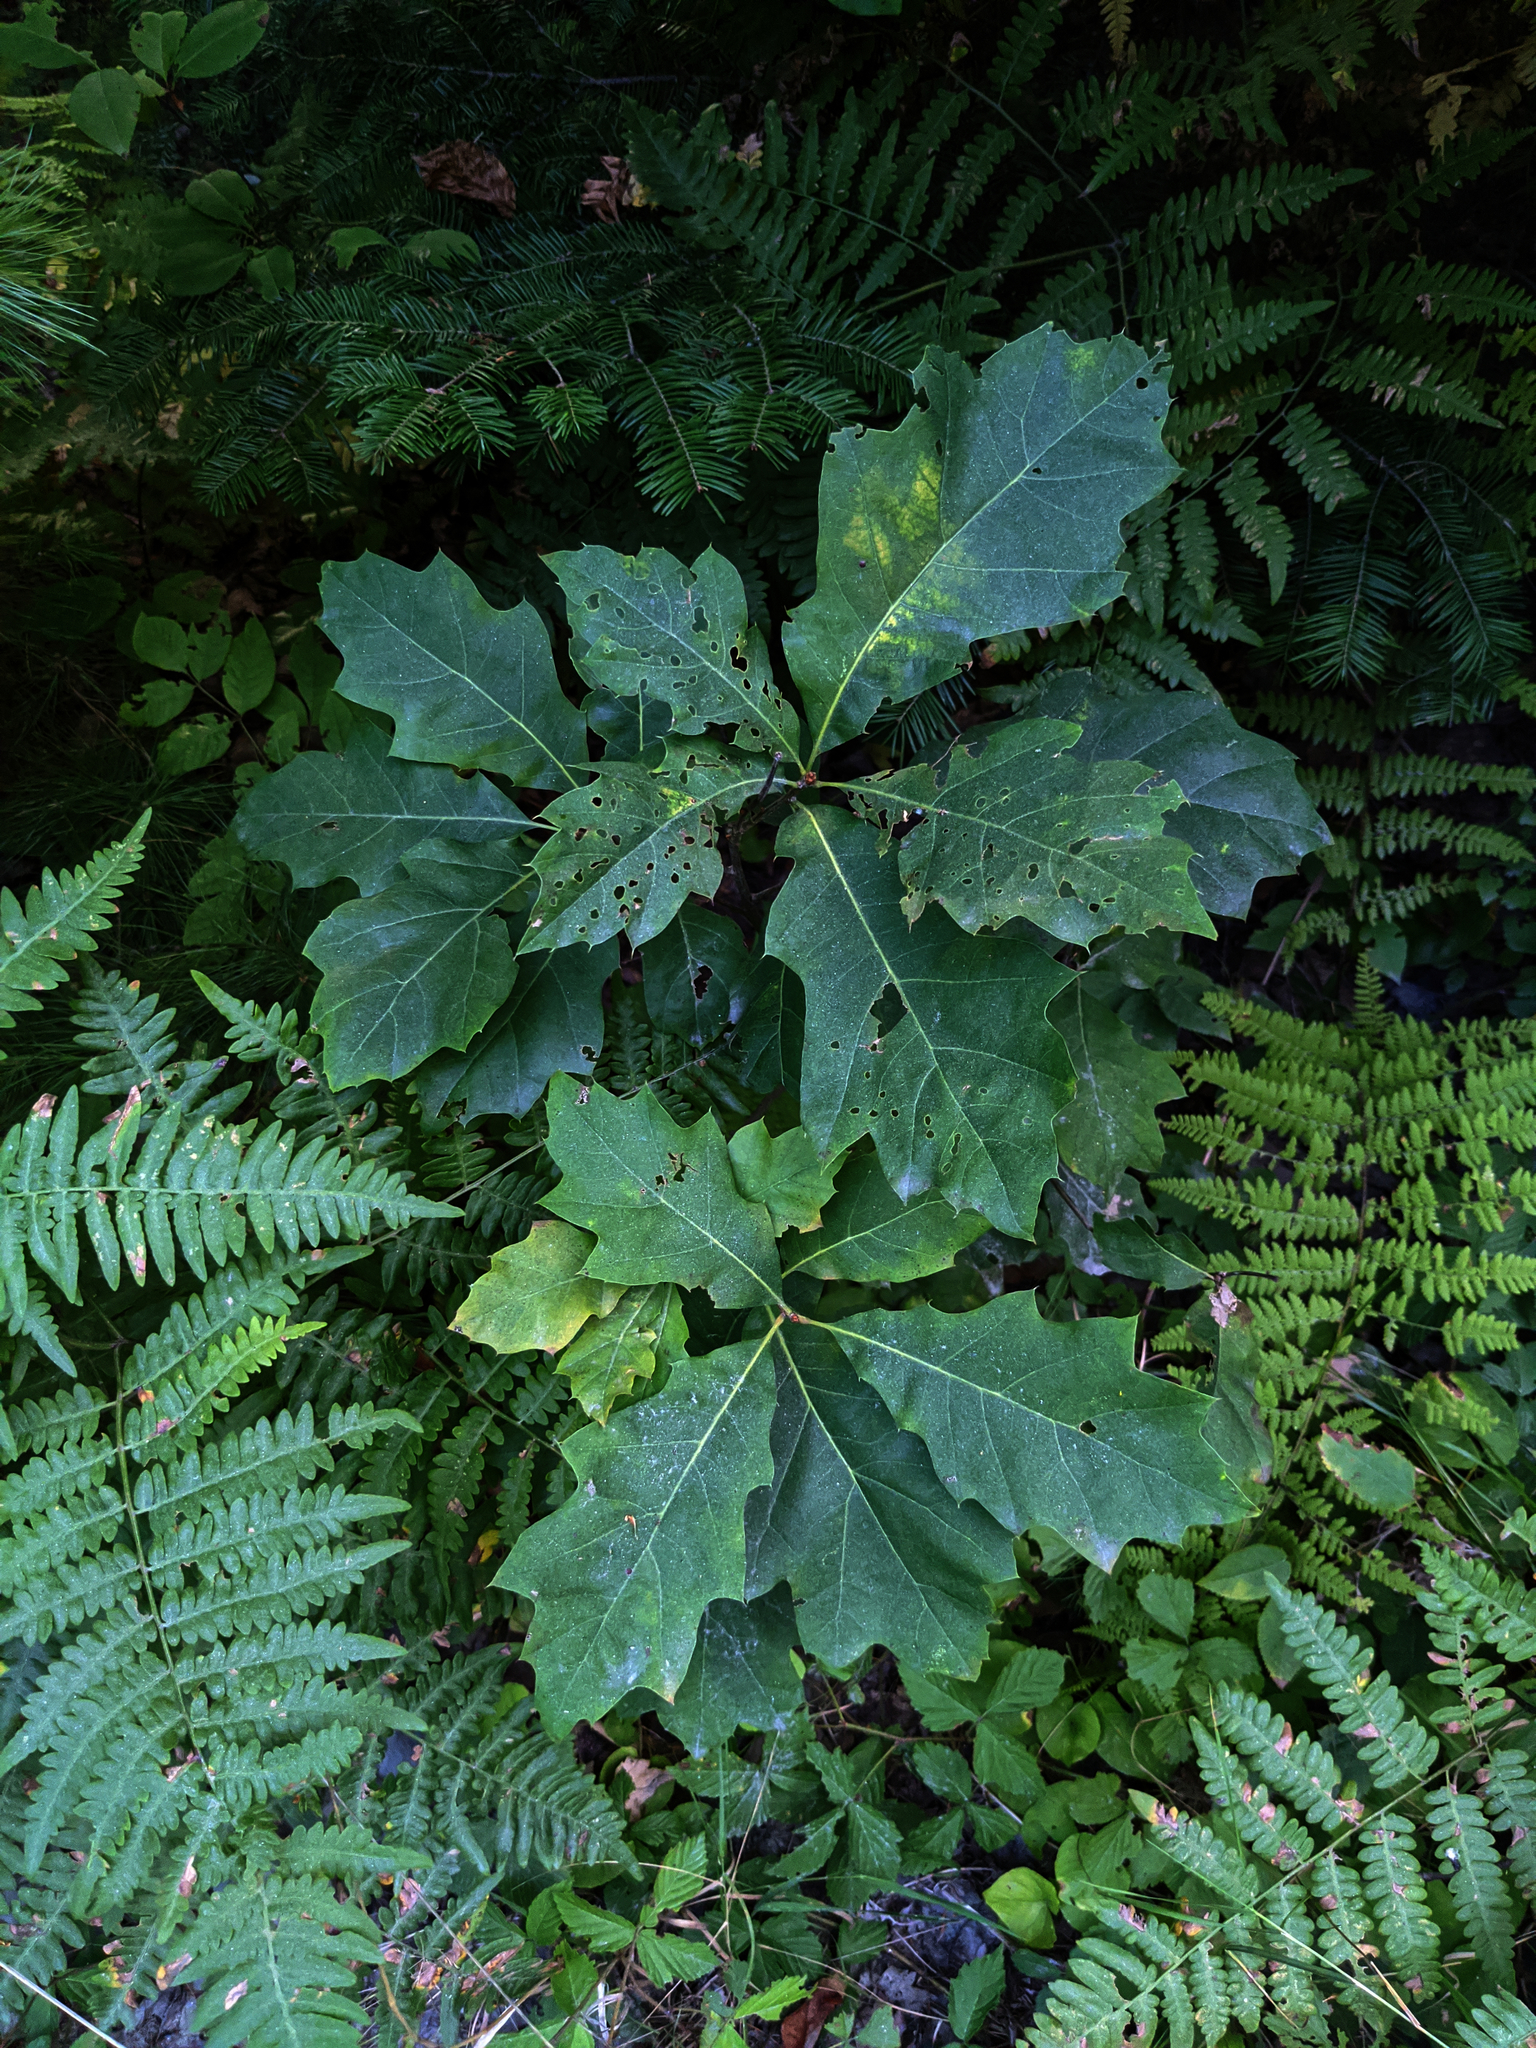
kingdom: Plantae
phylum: Tracheophyta
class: Magnoliopsida
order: Fagales
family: Fagaceae
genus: Quercus
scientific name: Quercus rubra
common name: Red oak
